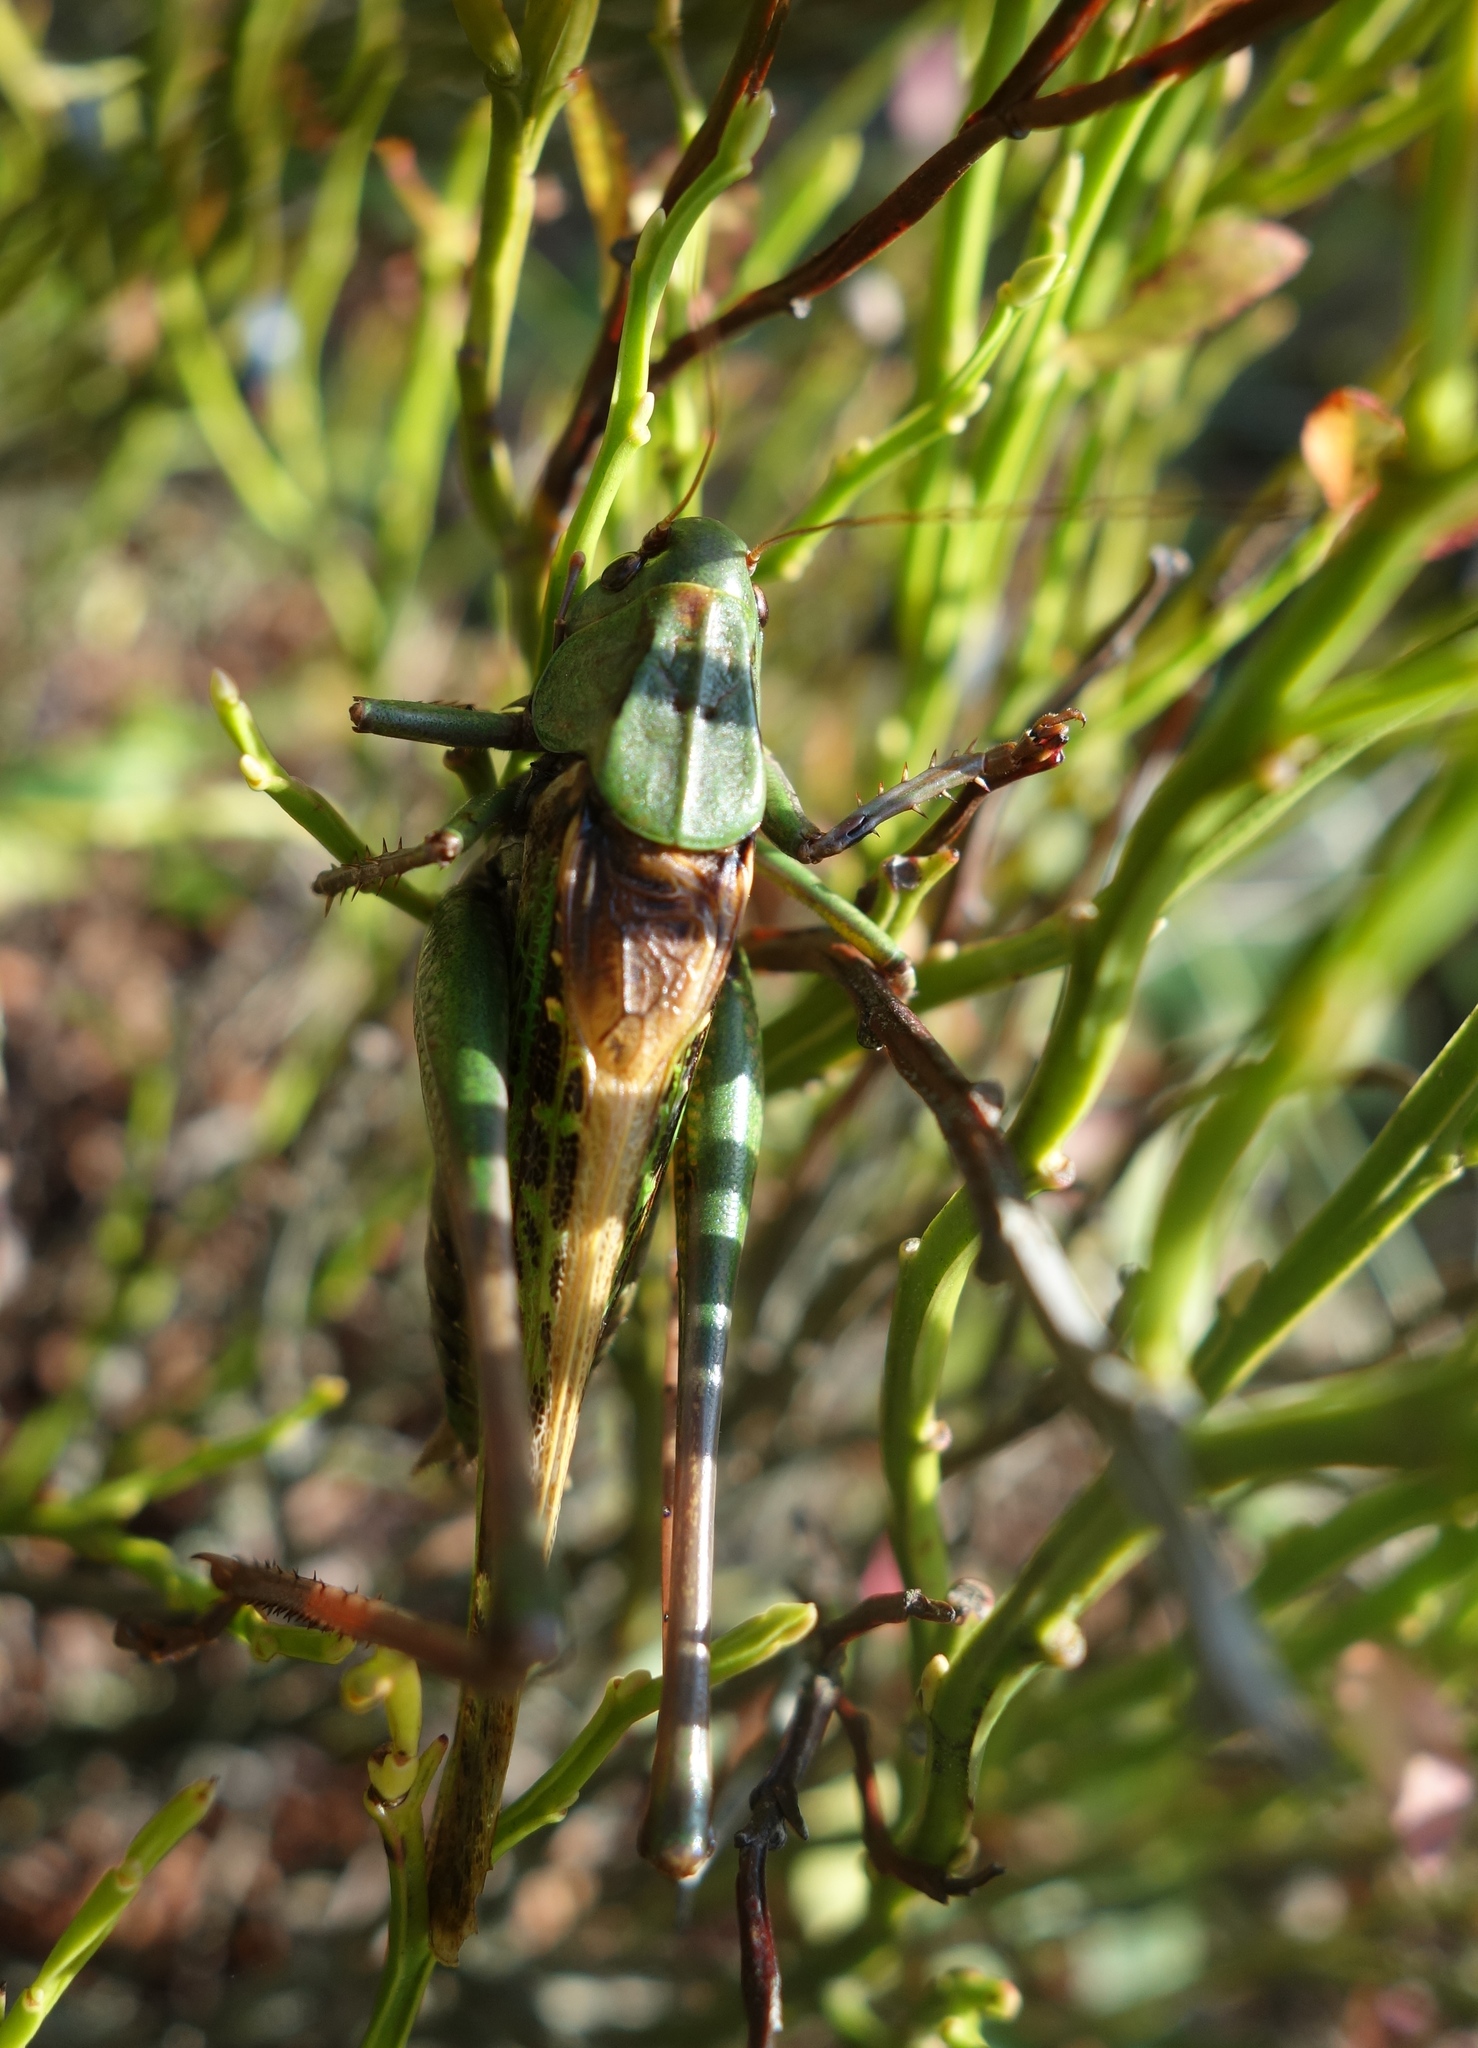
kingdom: Animalia
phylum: Arthropoda
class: Insecta
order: Orthoptera
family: Tettigoniidae
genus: Decticus
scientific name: Decticus verrucivorus
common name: Wart-biter
